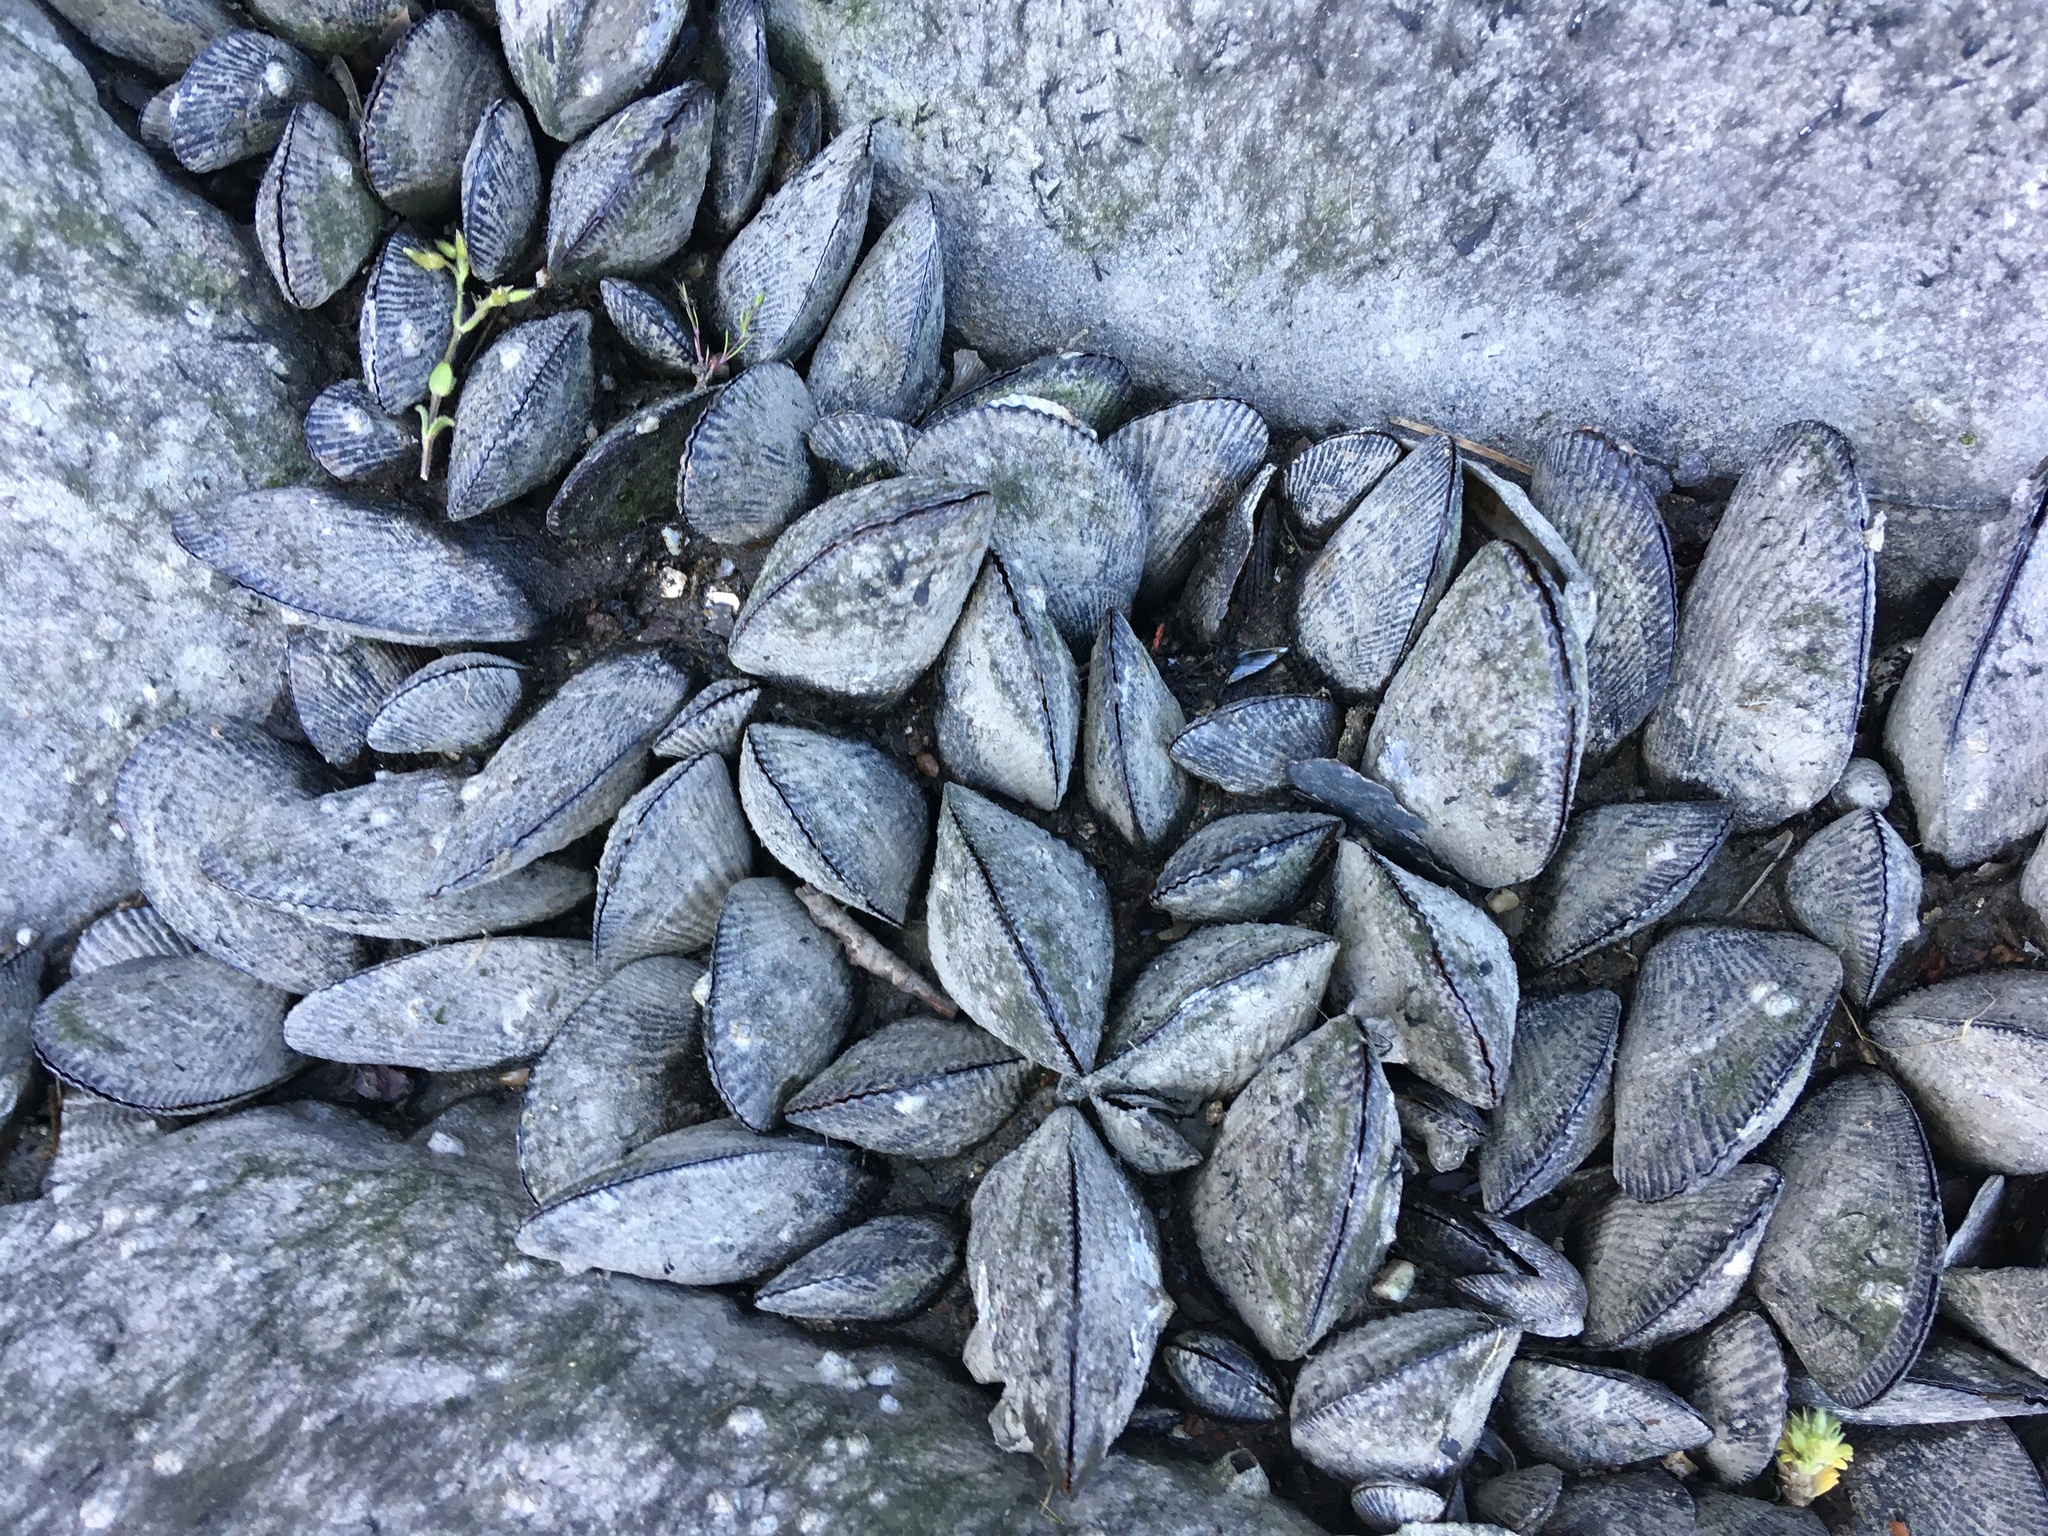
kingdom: Animalia
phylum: Mollusca
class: Bivalvia
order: Mytilida
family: Mytilidae
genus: Geukensia
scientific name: Geukensia demissa
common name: Ribbed mussel
